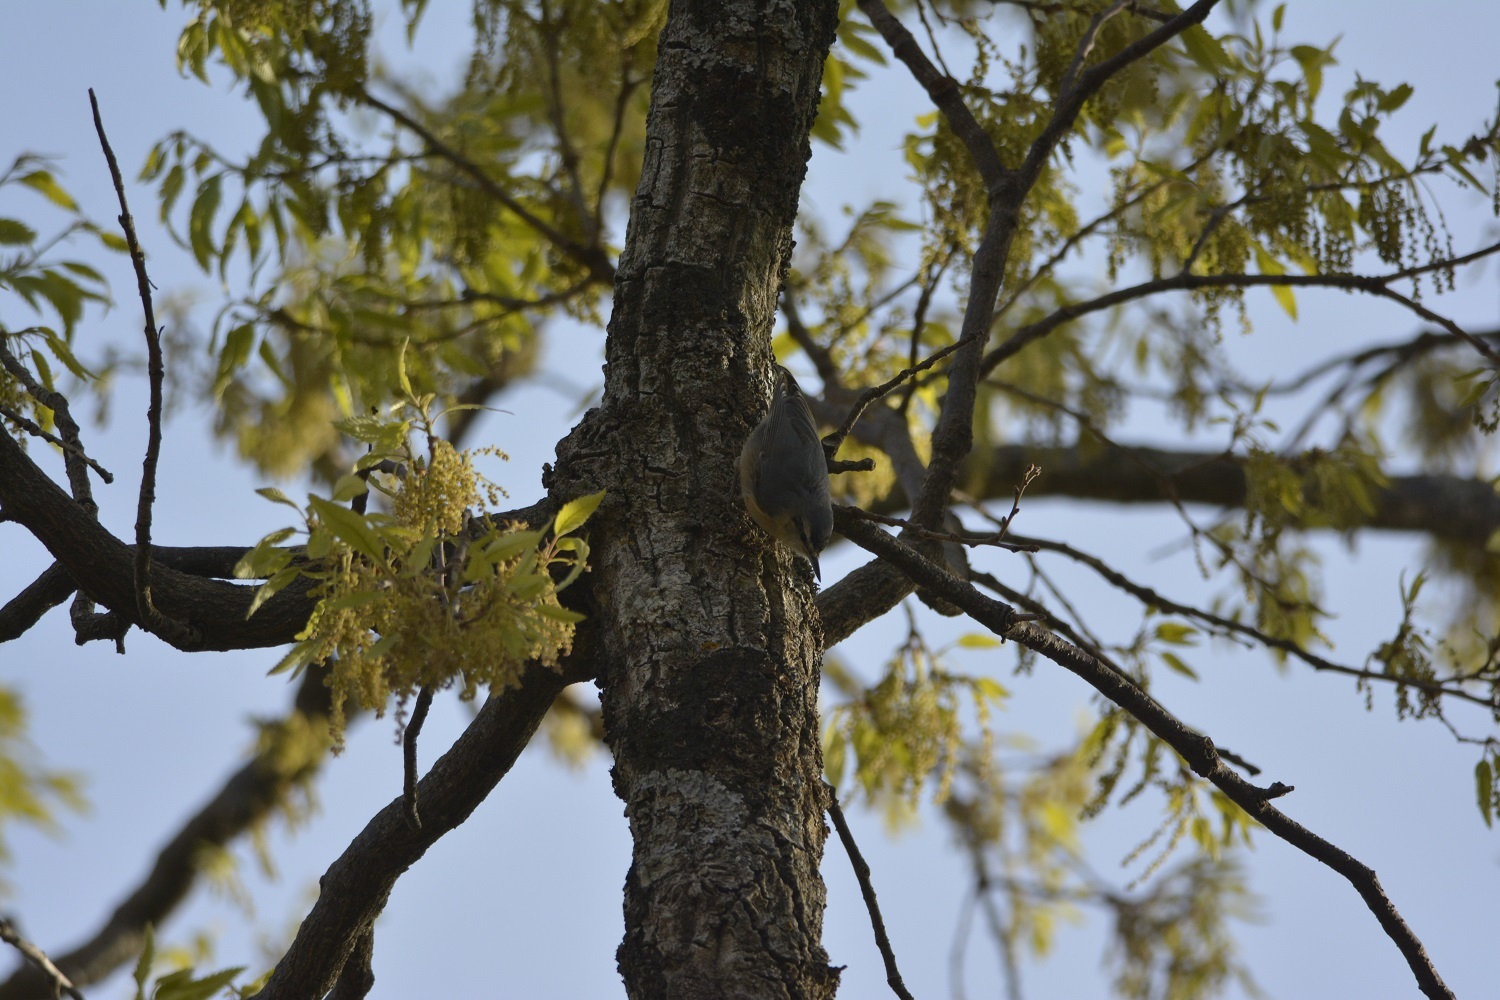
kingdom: Animalia
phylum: Chordata
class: Aves
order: Passeriformes
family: Sittidae
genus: Sitta
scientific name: Sitta ledanti
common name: Algerian nuthatch
